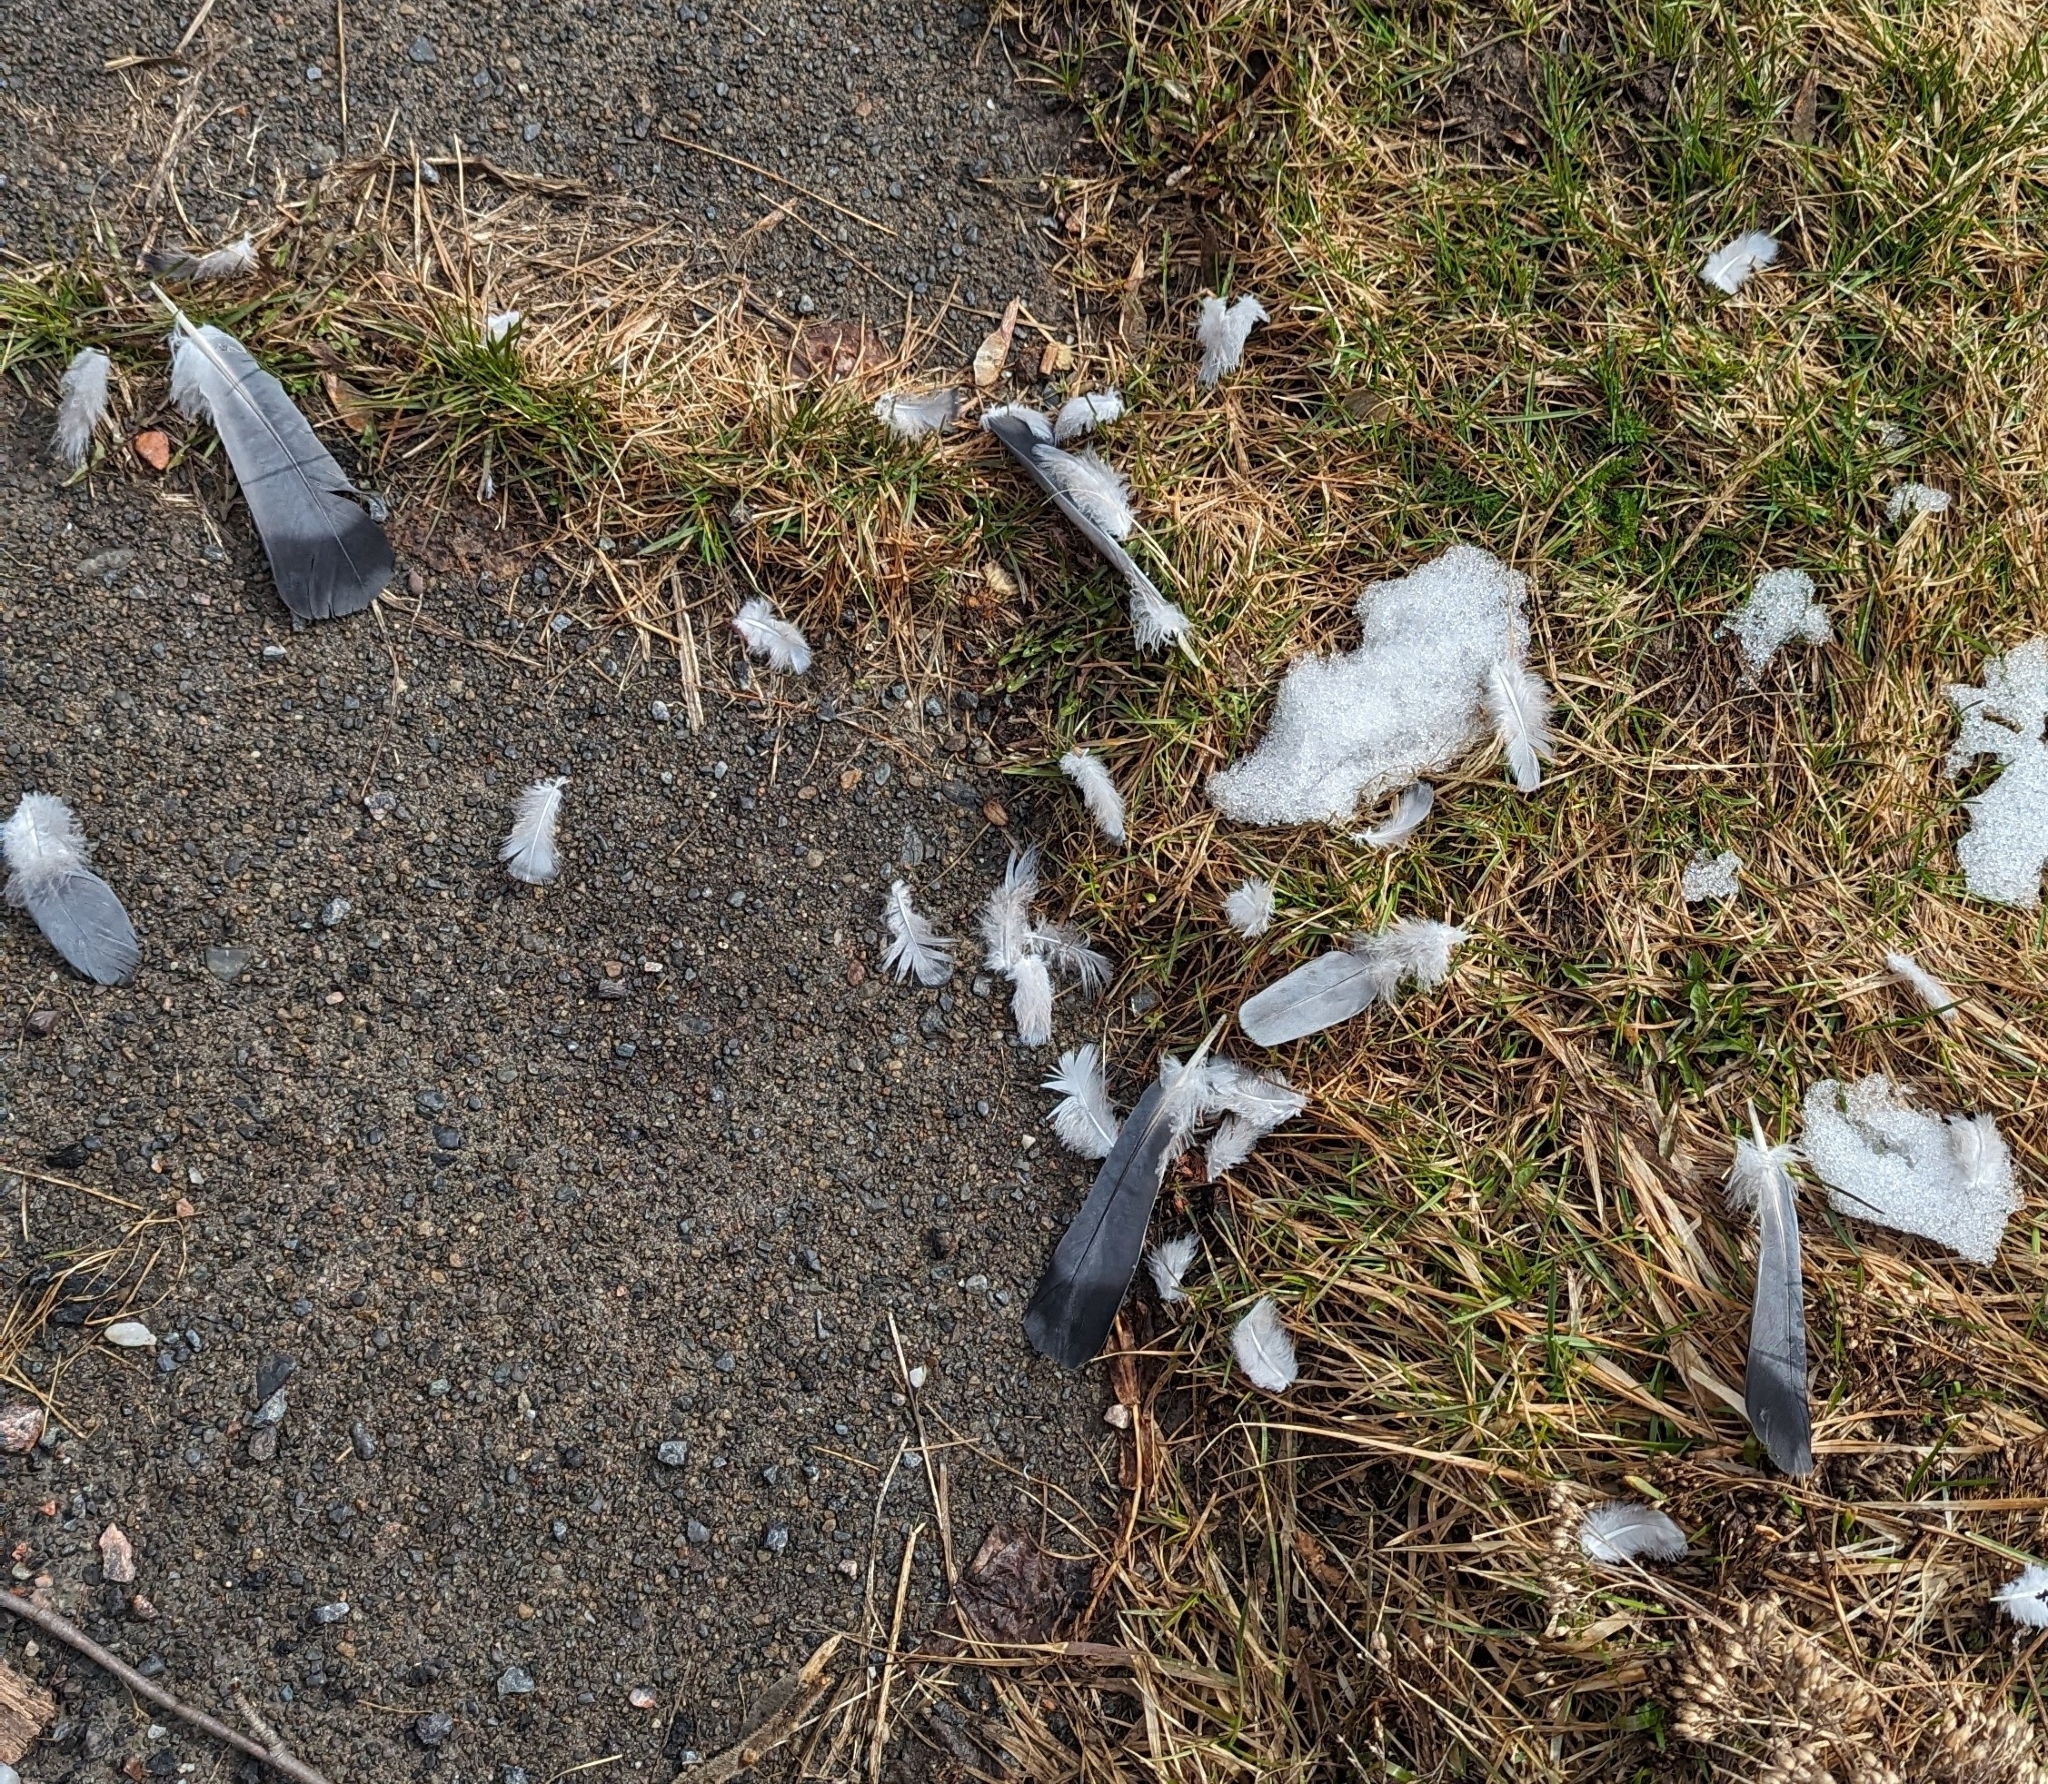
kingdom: Animalia
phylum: Chordata
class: Aves
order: Columbiformes
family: Columbidae
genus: Columba
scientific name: Columba livia
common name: Rock pigeon
